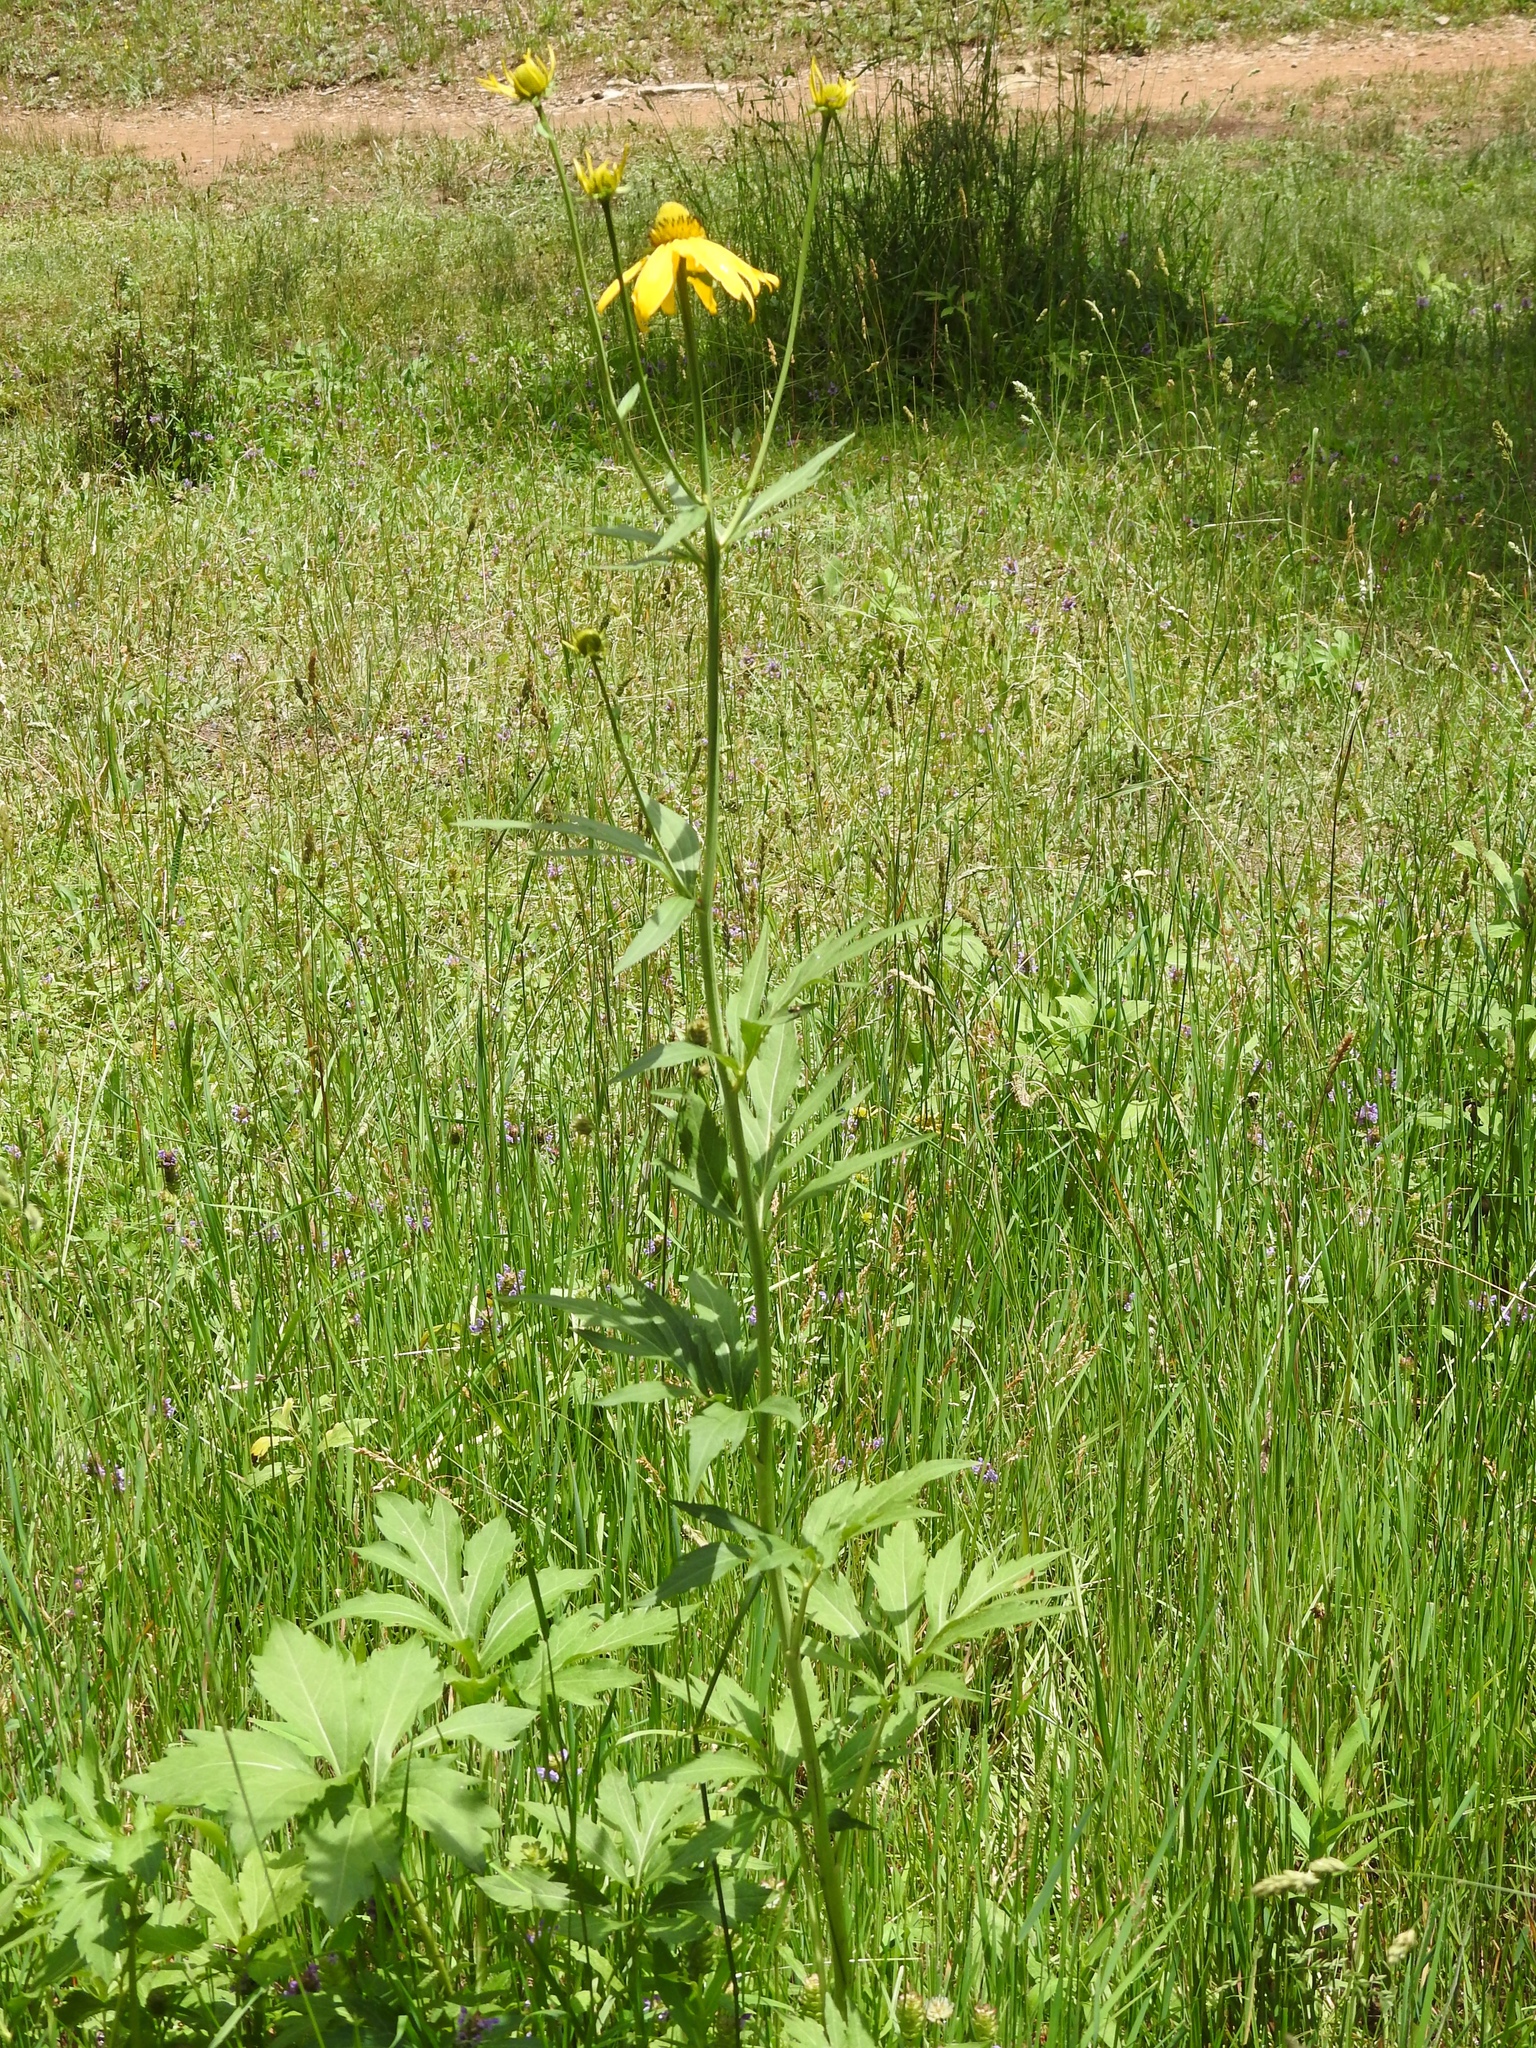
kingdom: Plantae
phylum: Tracheophyta
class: Magnoliopsida
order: Asterales
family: Asteraceae
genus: Rudbeckia
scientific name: Rudbeckia laciniata
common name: Coneflower
